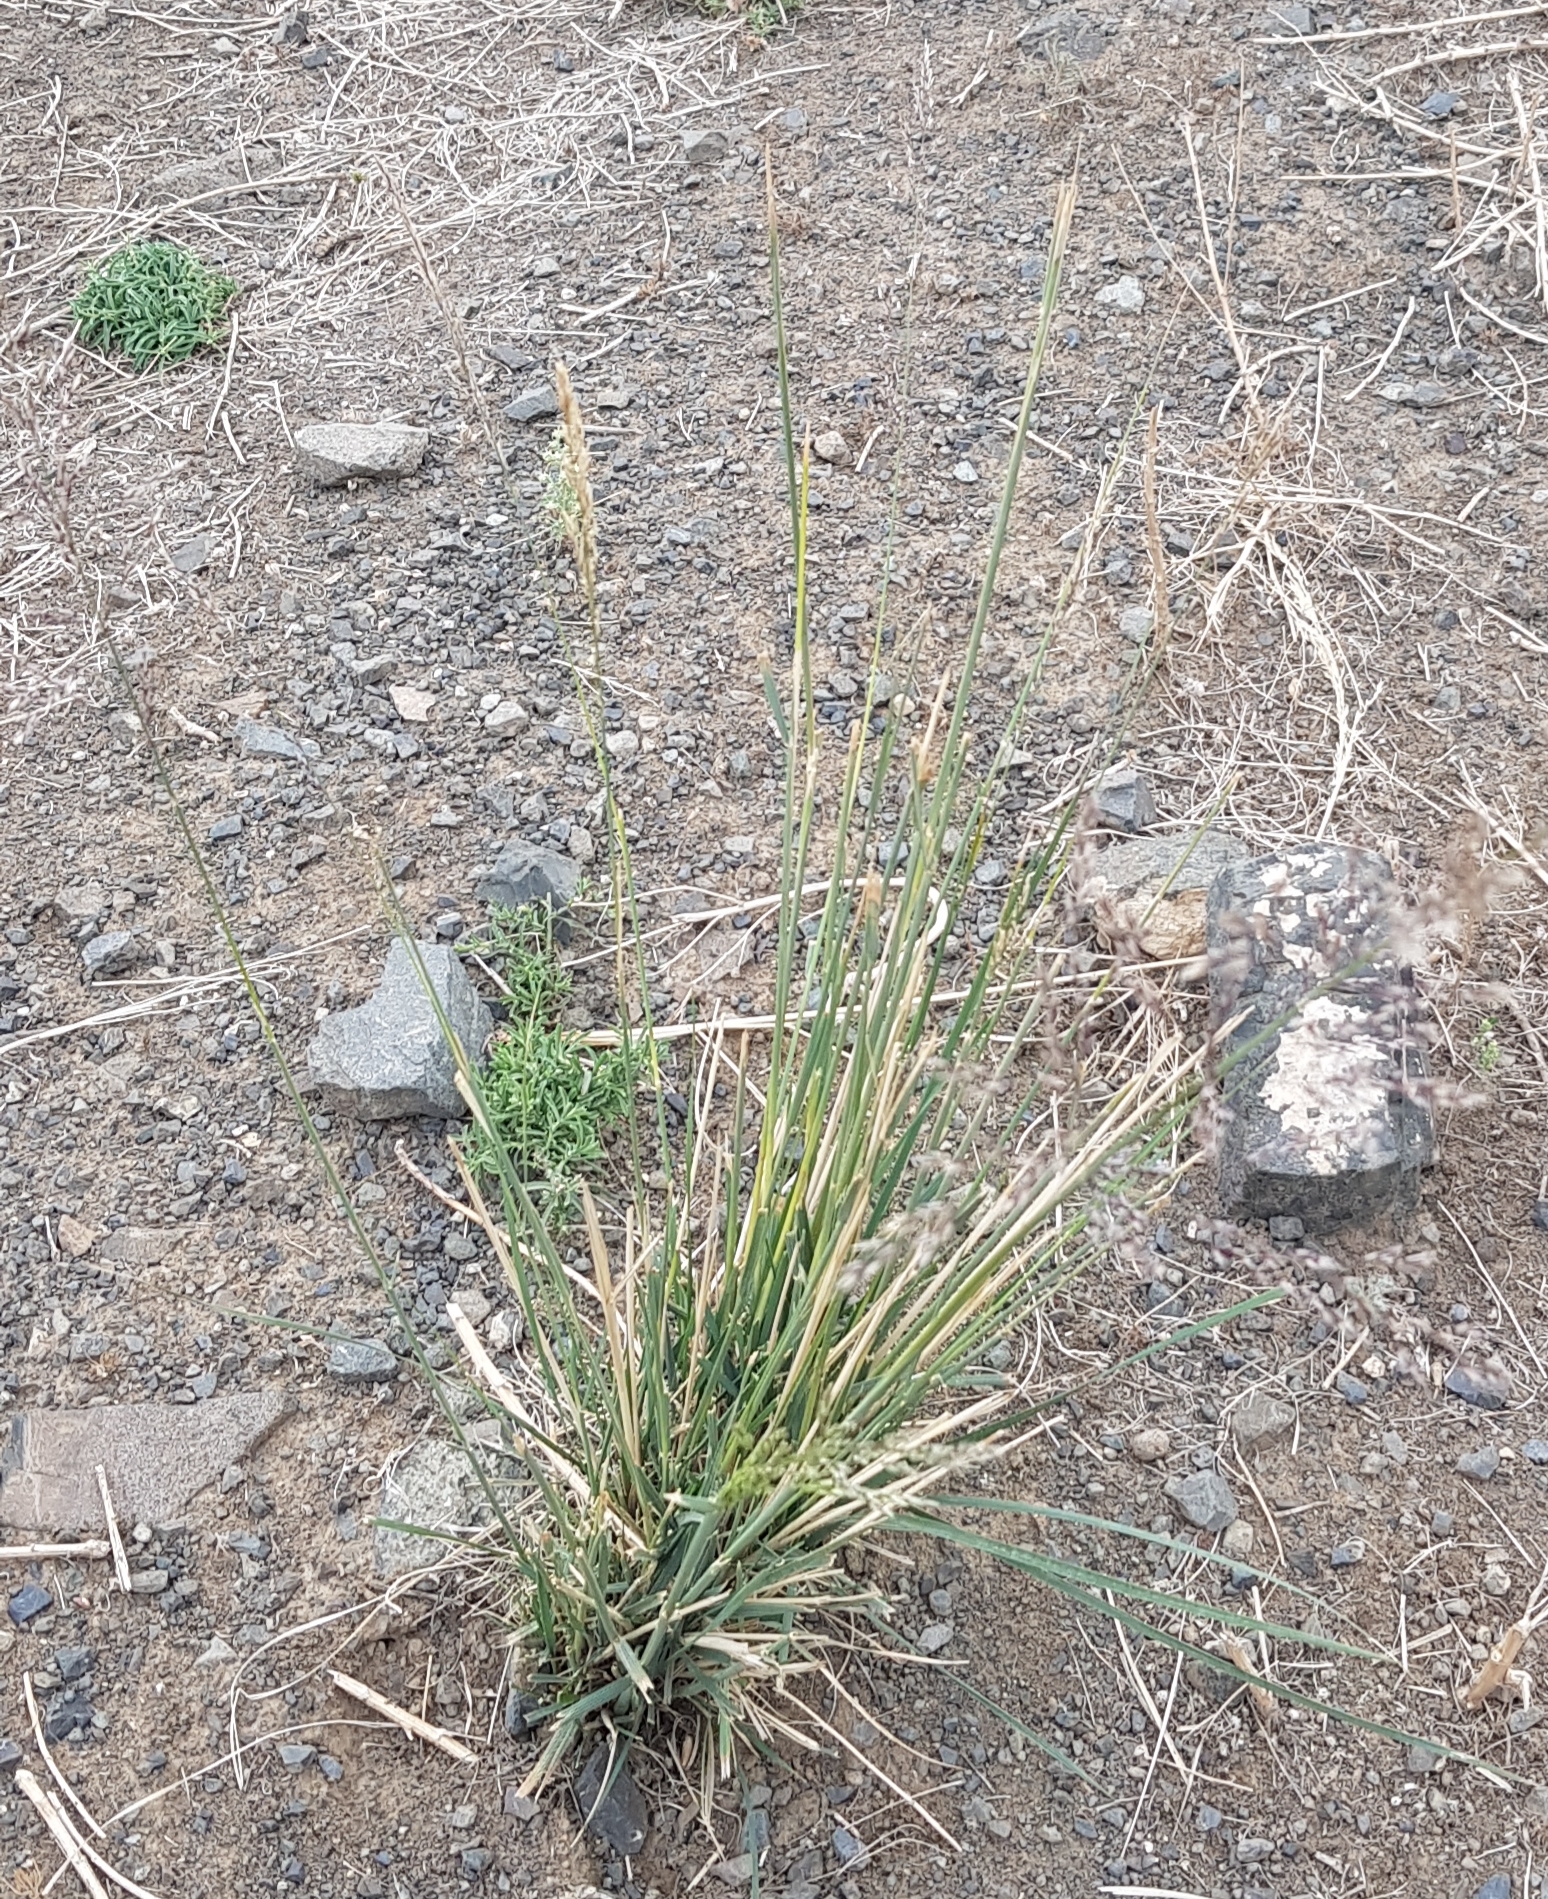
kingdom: Plantae
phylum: Tracheophyta
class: Liliopsida
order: Poales
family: Poaceae
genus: Neotrinia
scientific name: Neotrinia splendens
